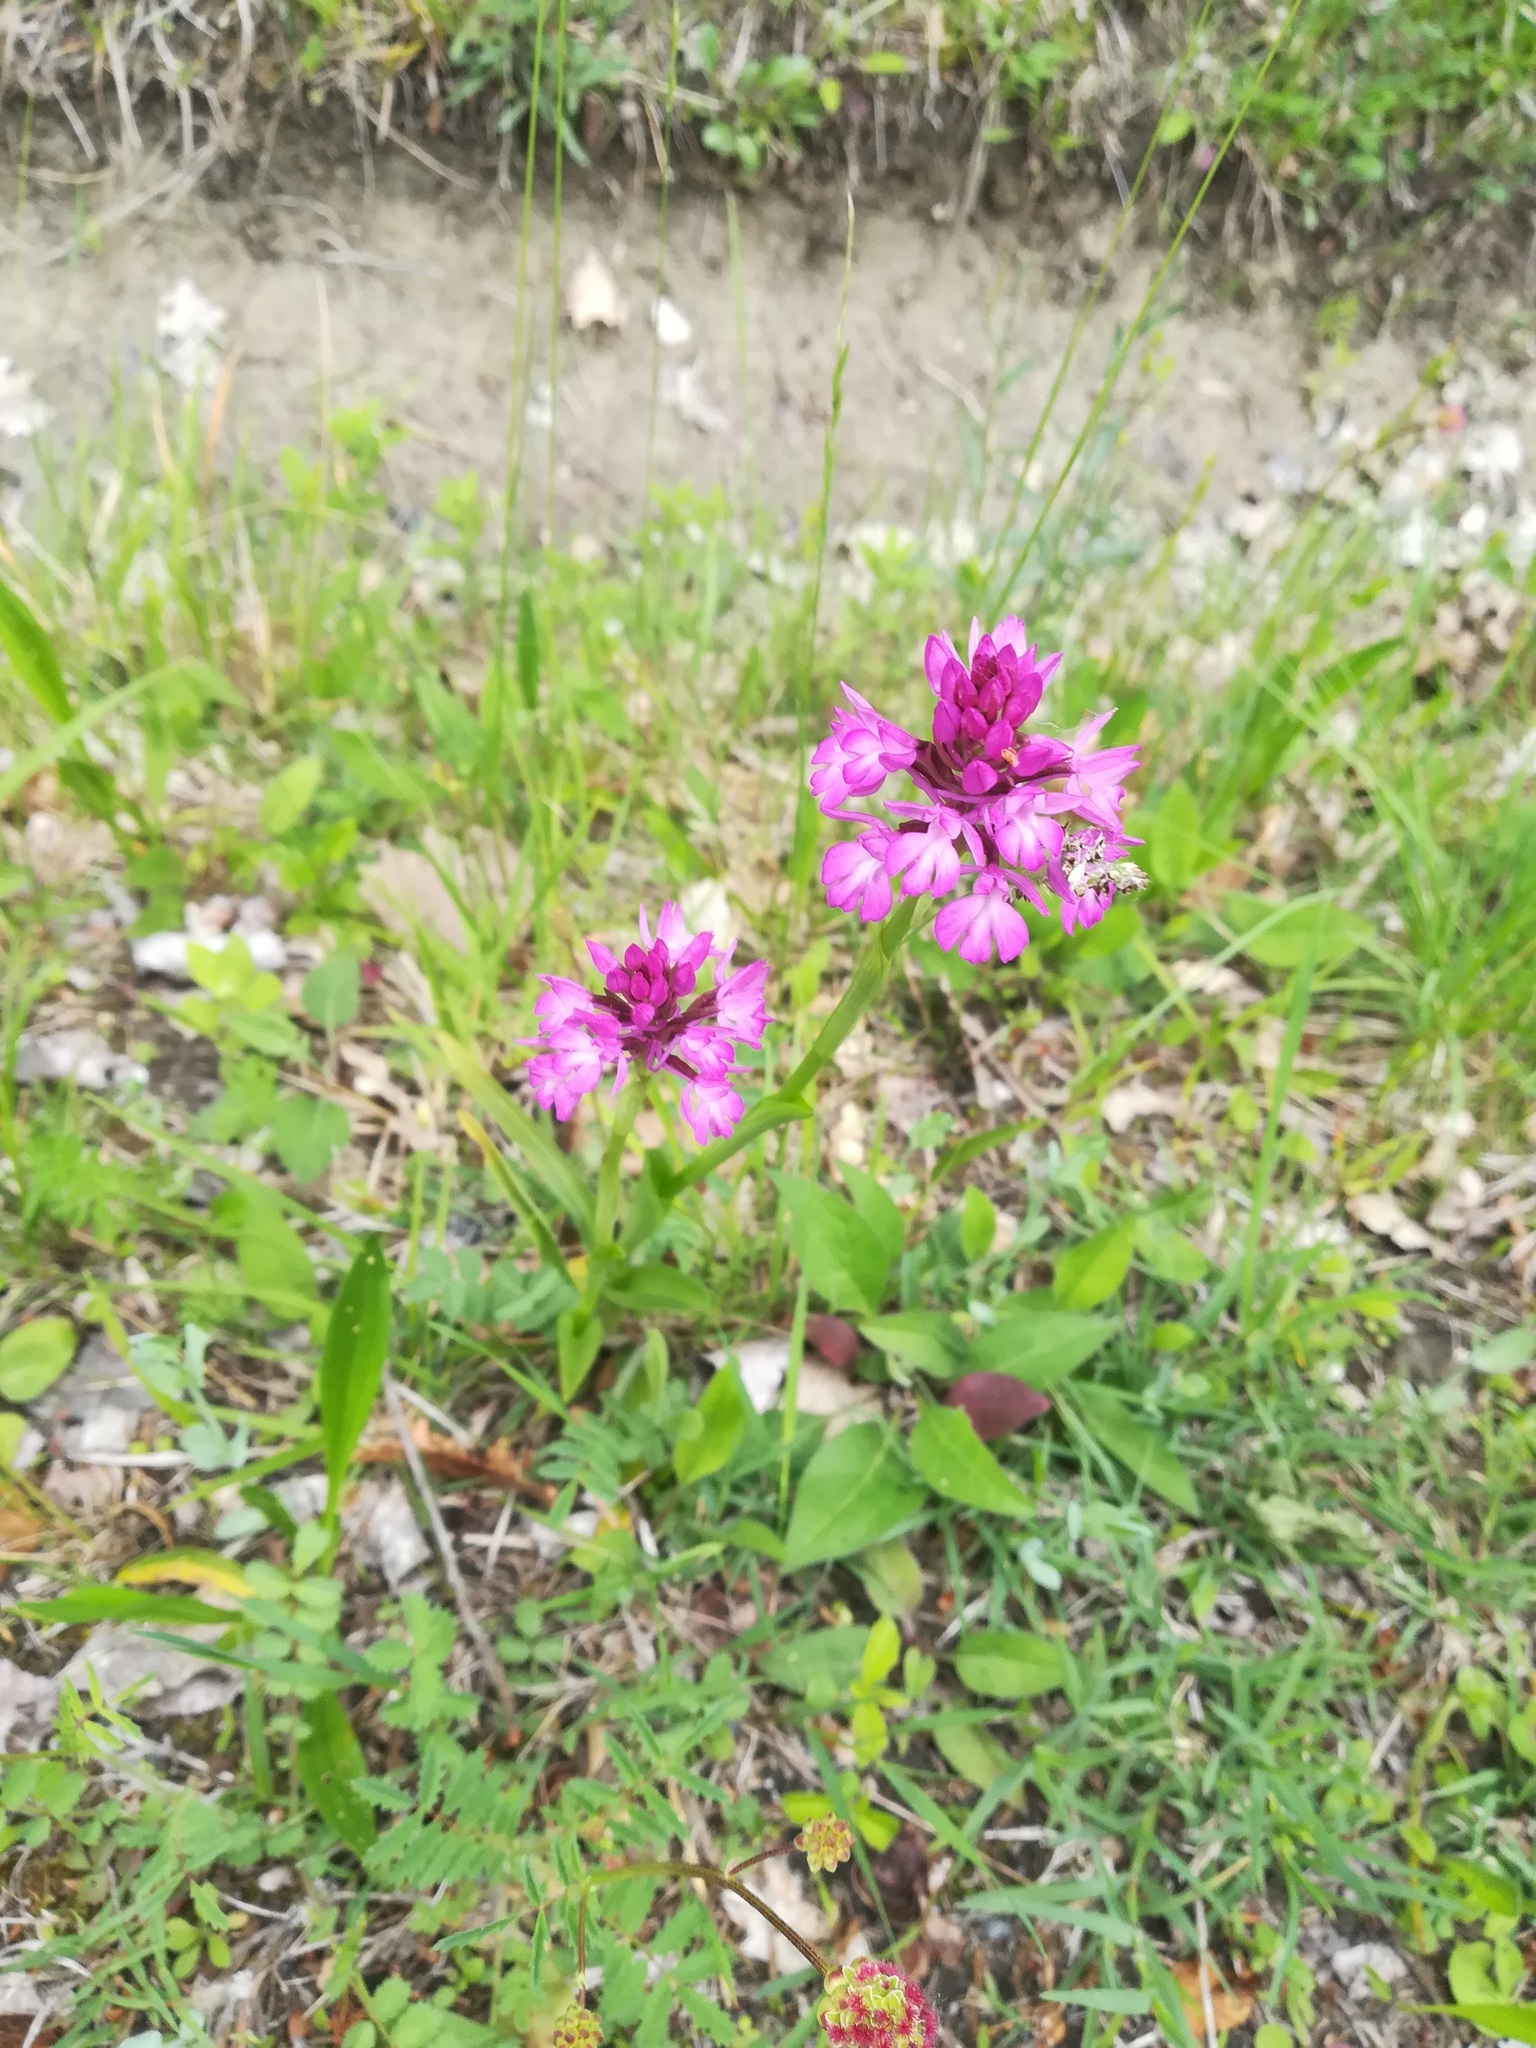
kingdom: Plantae
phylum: Tracheophyta
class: Liliopsida
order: Asparagales
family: Orchidaceae
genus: Anacamptis
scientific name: Anacamptis pyramidalis
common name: Pyramidal orchid
